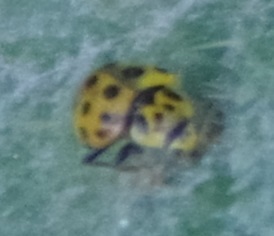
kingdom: Animalia
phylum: Arthropoda
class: Insecta
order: Coleoptera
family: Coccinellidae
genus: Psyllobora
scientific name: Psyllobora vigintiduopunctata
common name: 22-spot ladybird
